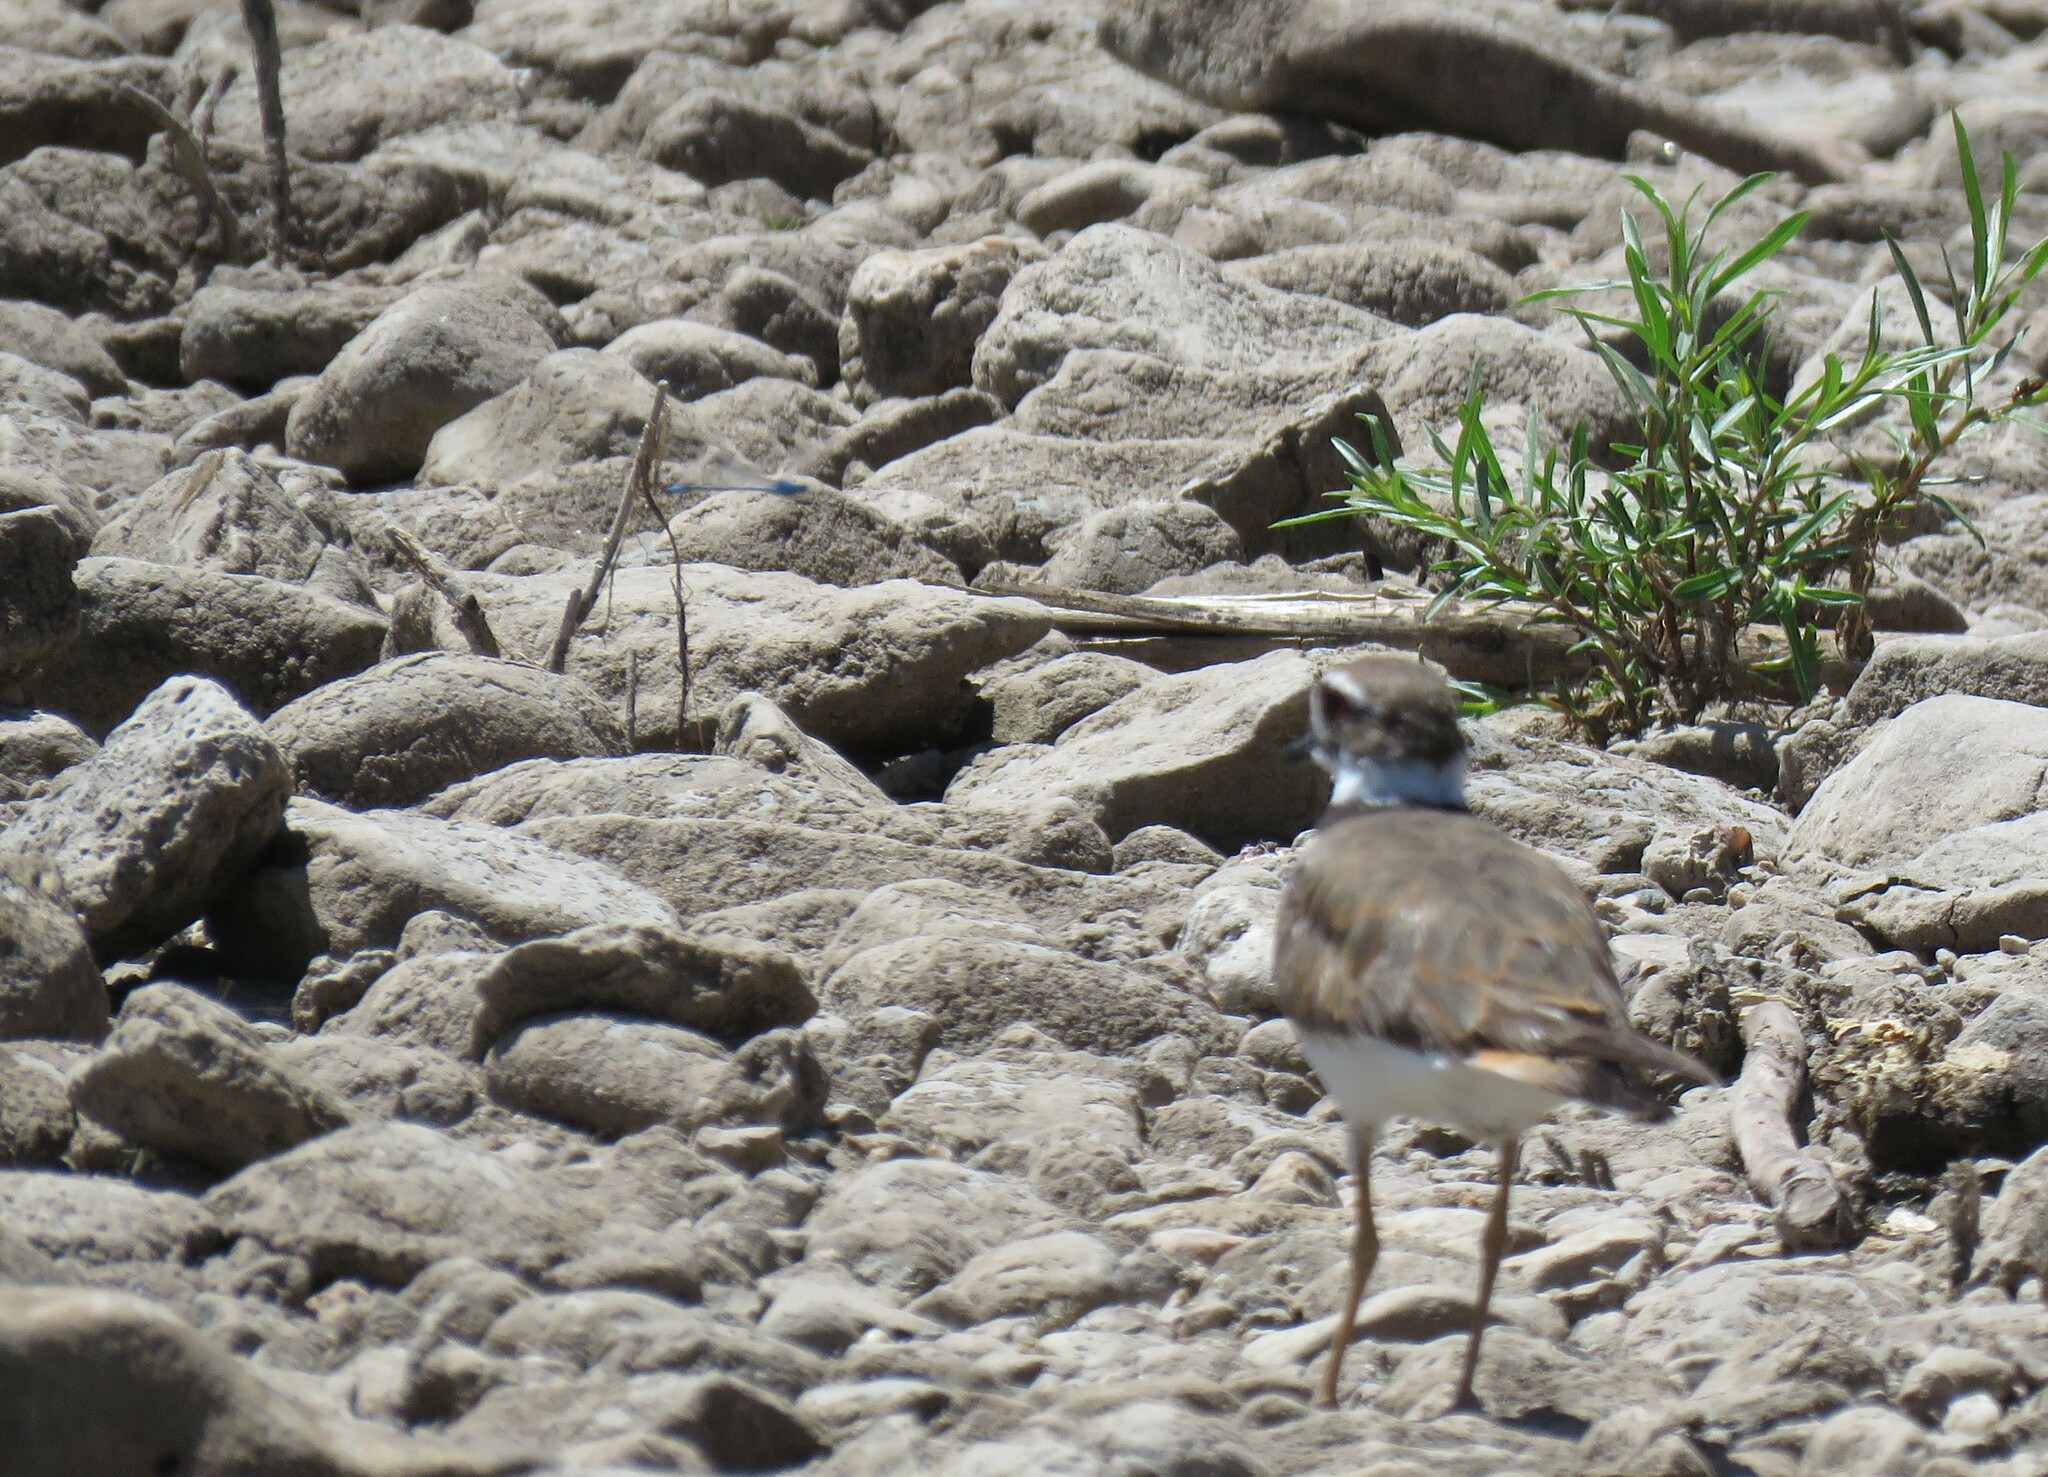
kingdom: Animalia
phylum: Chordata
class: Aves
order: Charadriiformes
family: Charadriidae
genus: Charadrius
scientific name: Charadrius vociferus
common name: Killdeer
